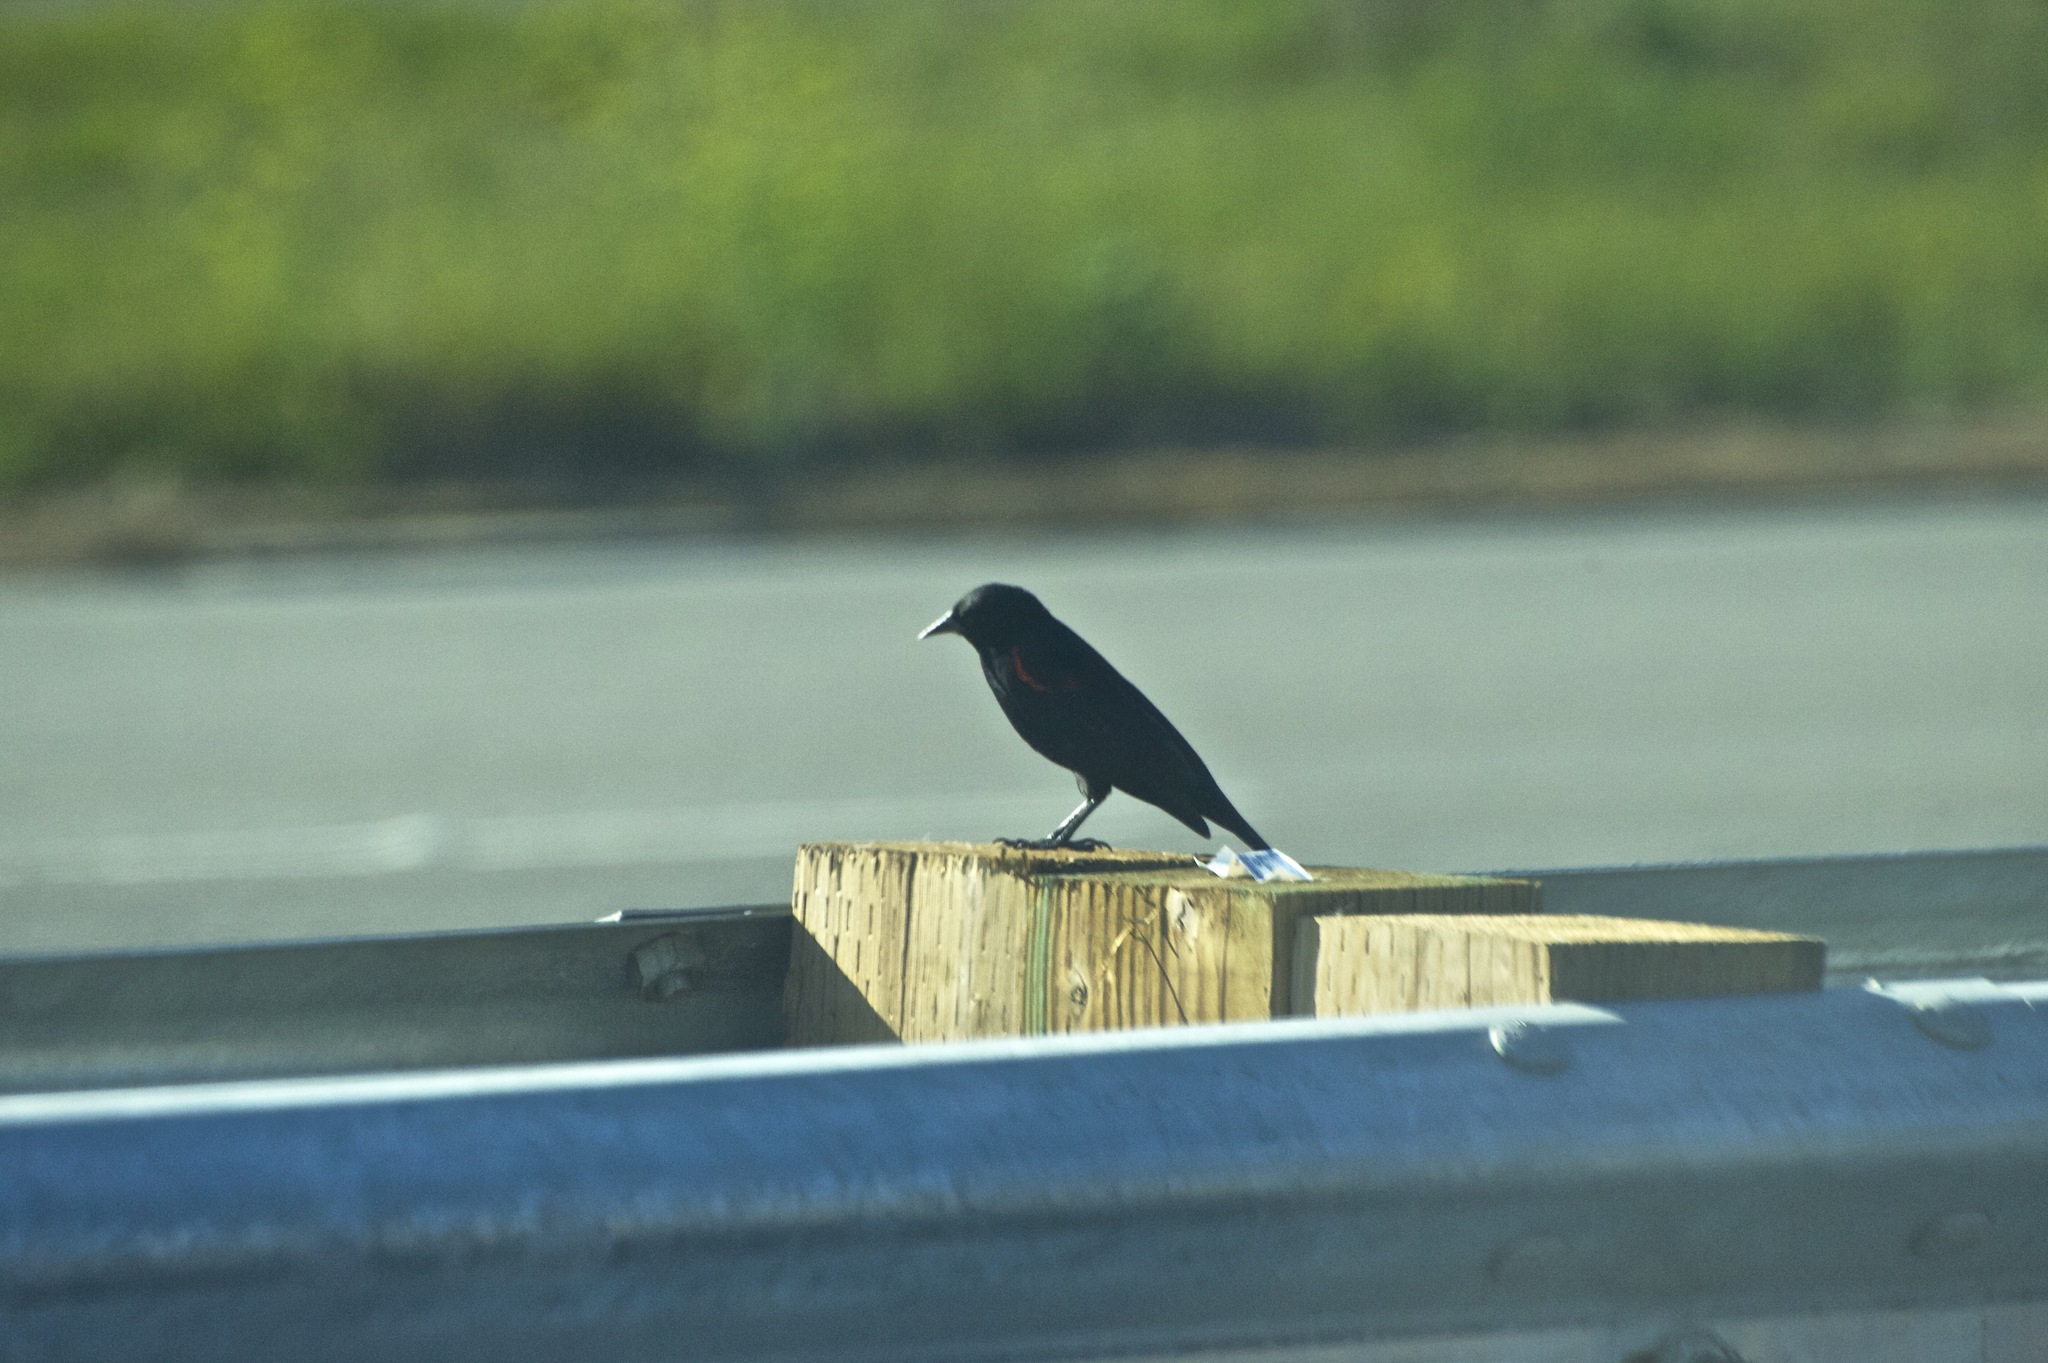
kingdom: Animalia
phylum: Chordata
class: Aves
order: Passeriformes
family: Icteridae
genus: Agelaius
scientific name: Agelaius phoeniceus
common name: Red-winged blackbird
